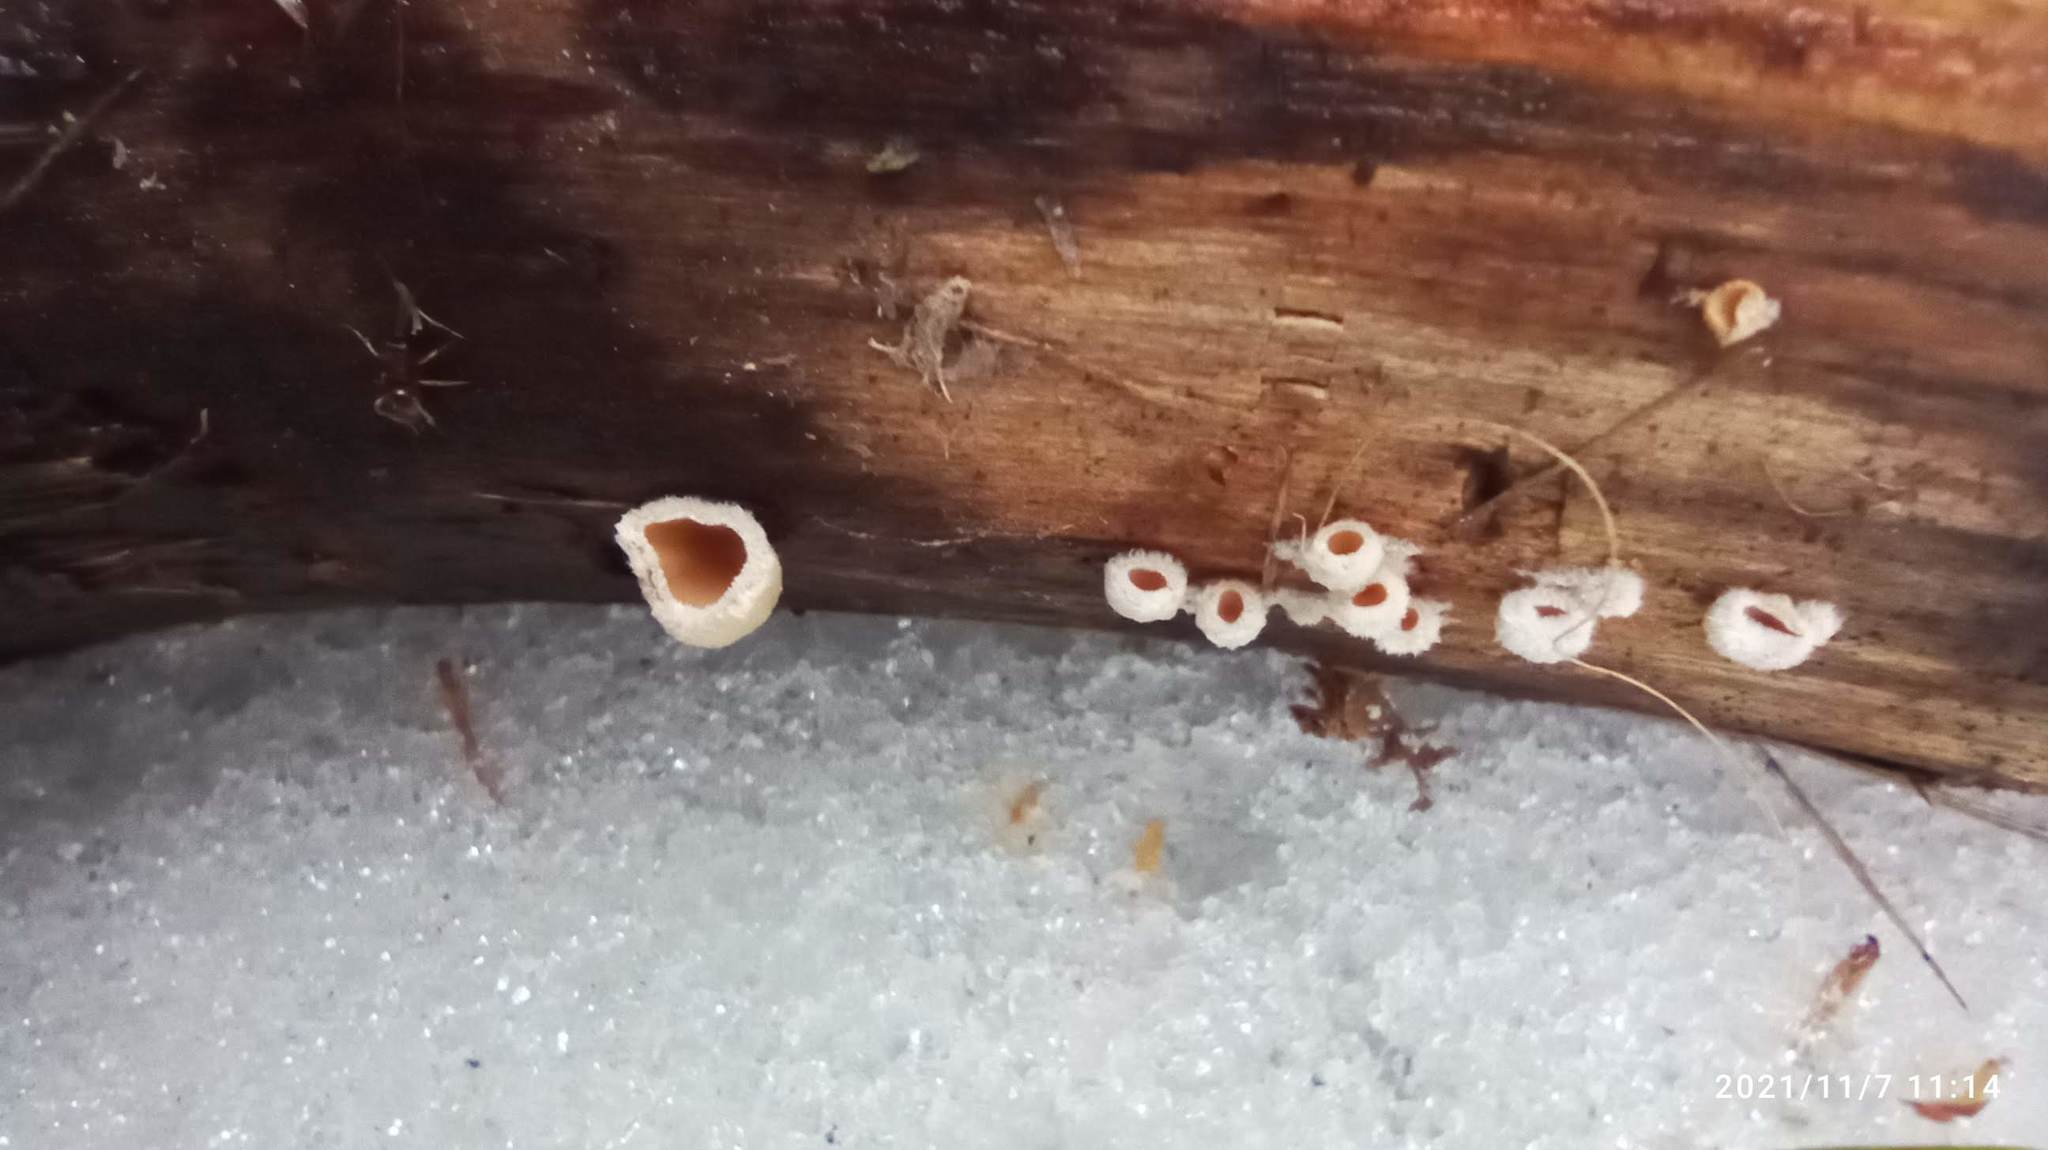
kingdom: Fungi
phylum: Basidiomycota
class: Agaricomycetes
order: Agaricales
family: Schizophyllaceae
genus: Schizophyllum
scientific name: Schizophyllum amplum
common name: Poplar bells
